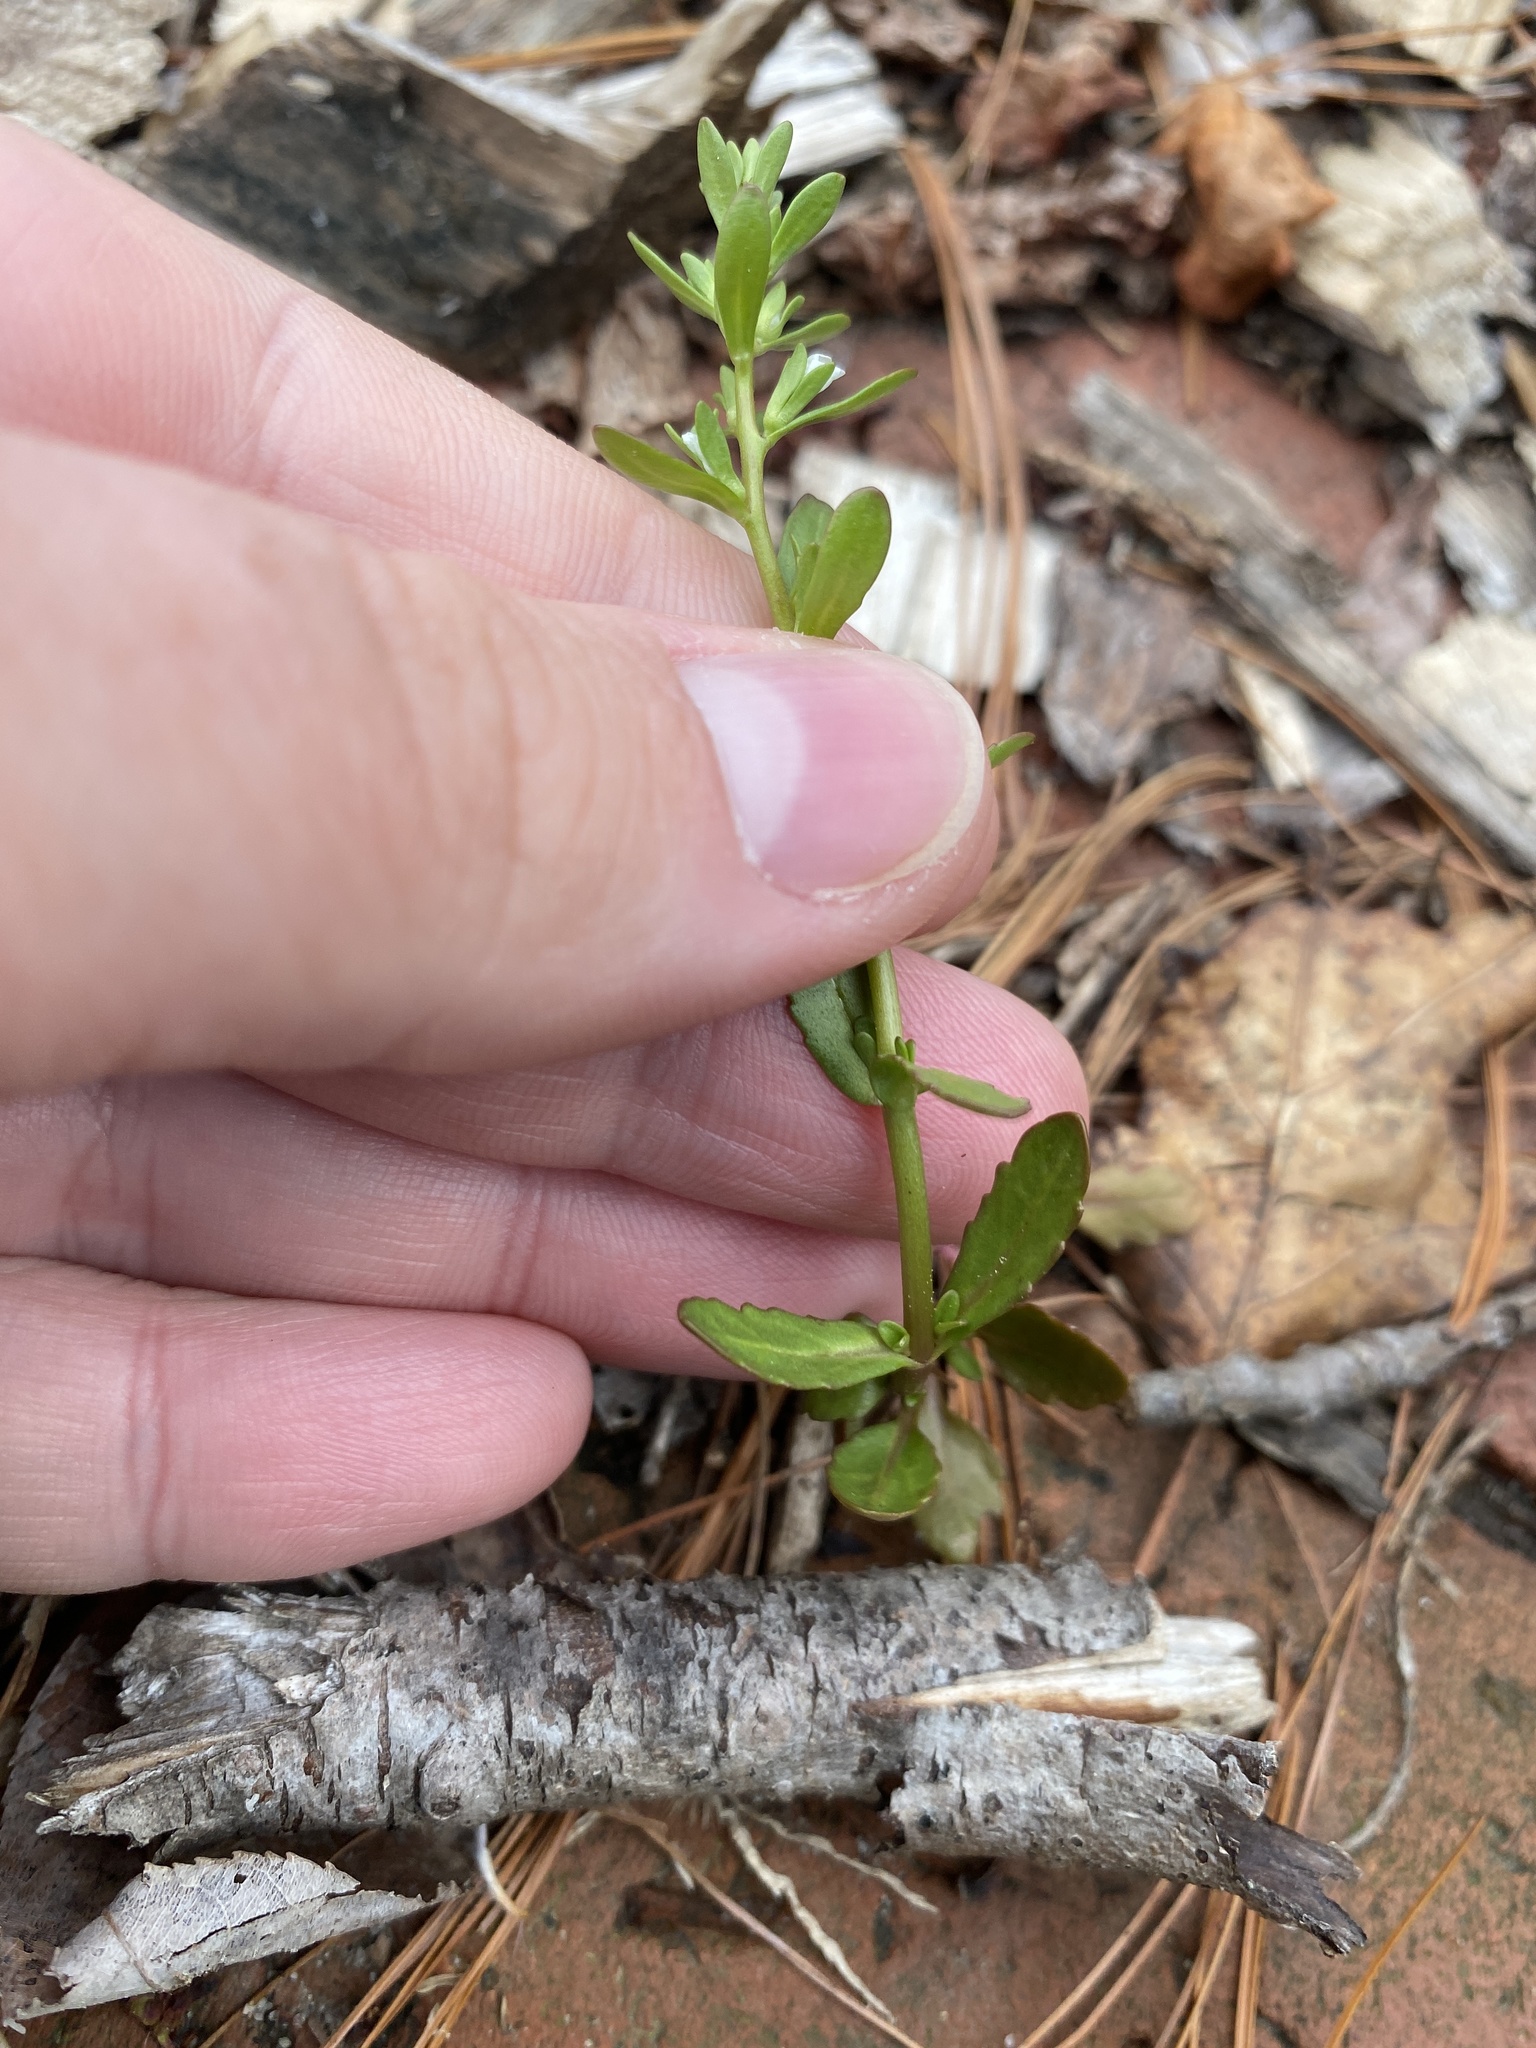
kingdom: Plantae
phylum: Tracheophyta
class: Magnoliopsida
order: Lamiales
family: Plantaginaceae
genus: Veronica
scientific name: Veronica peregrina
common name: Neckweed
